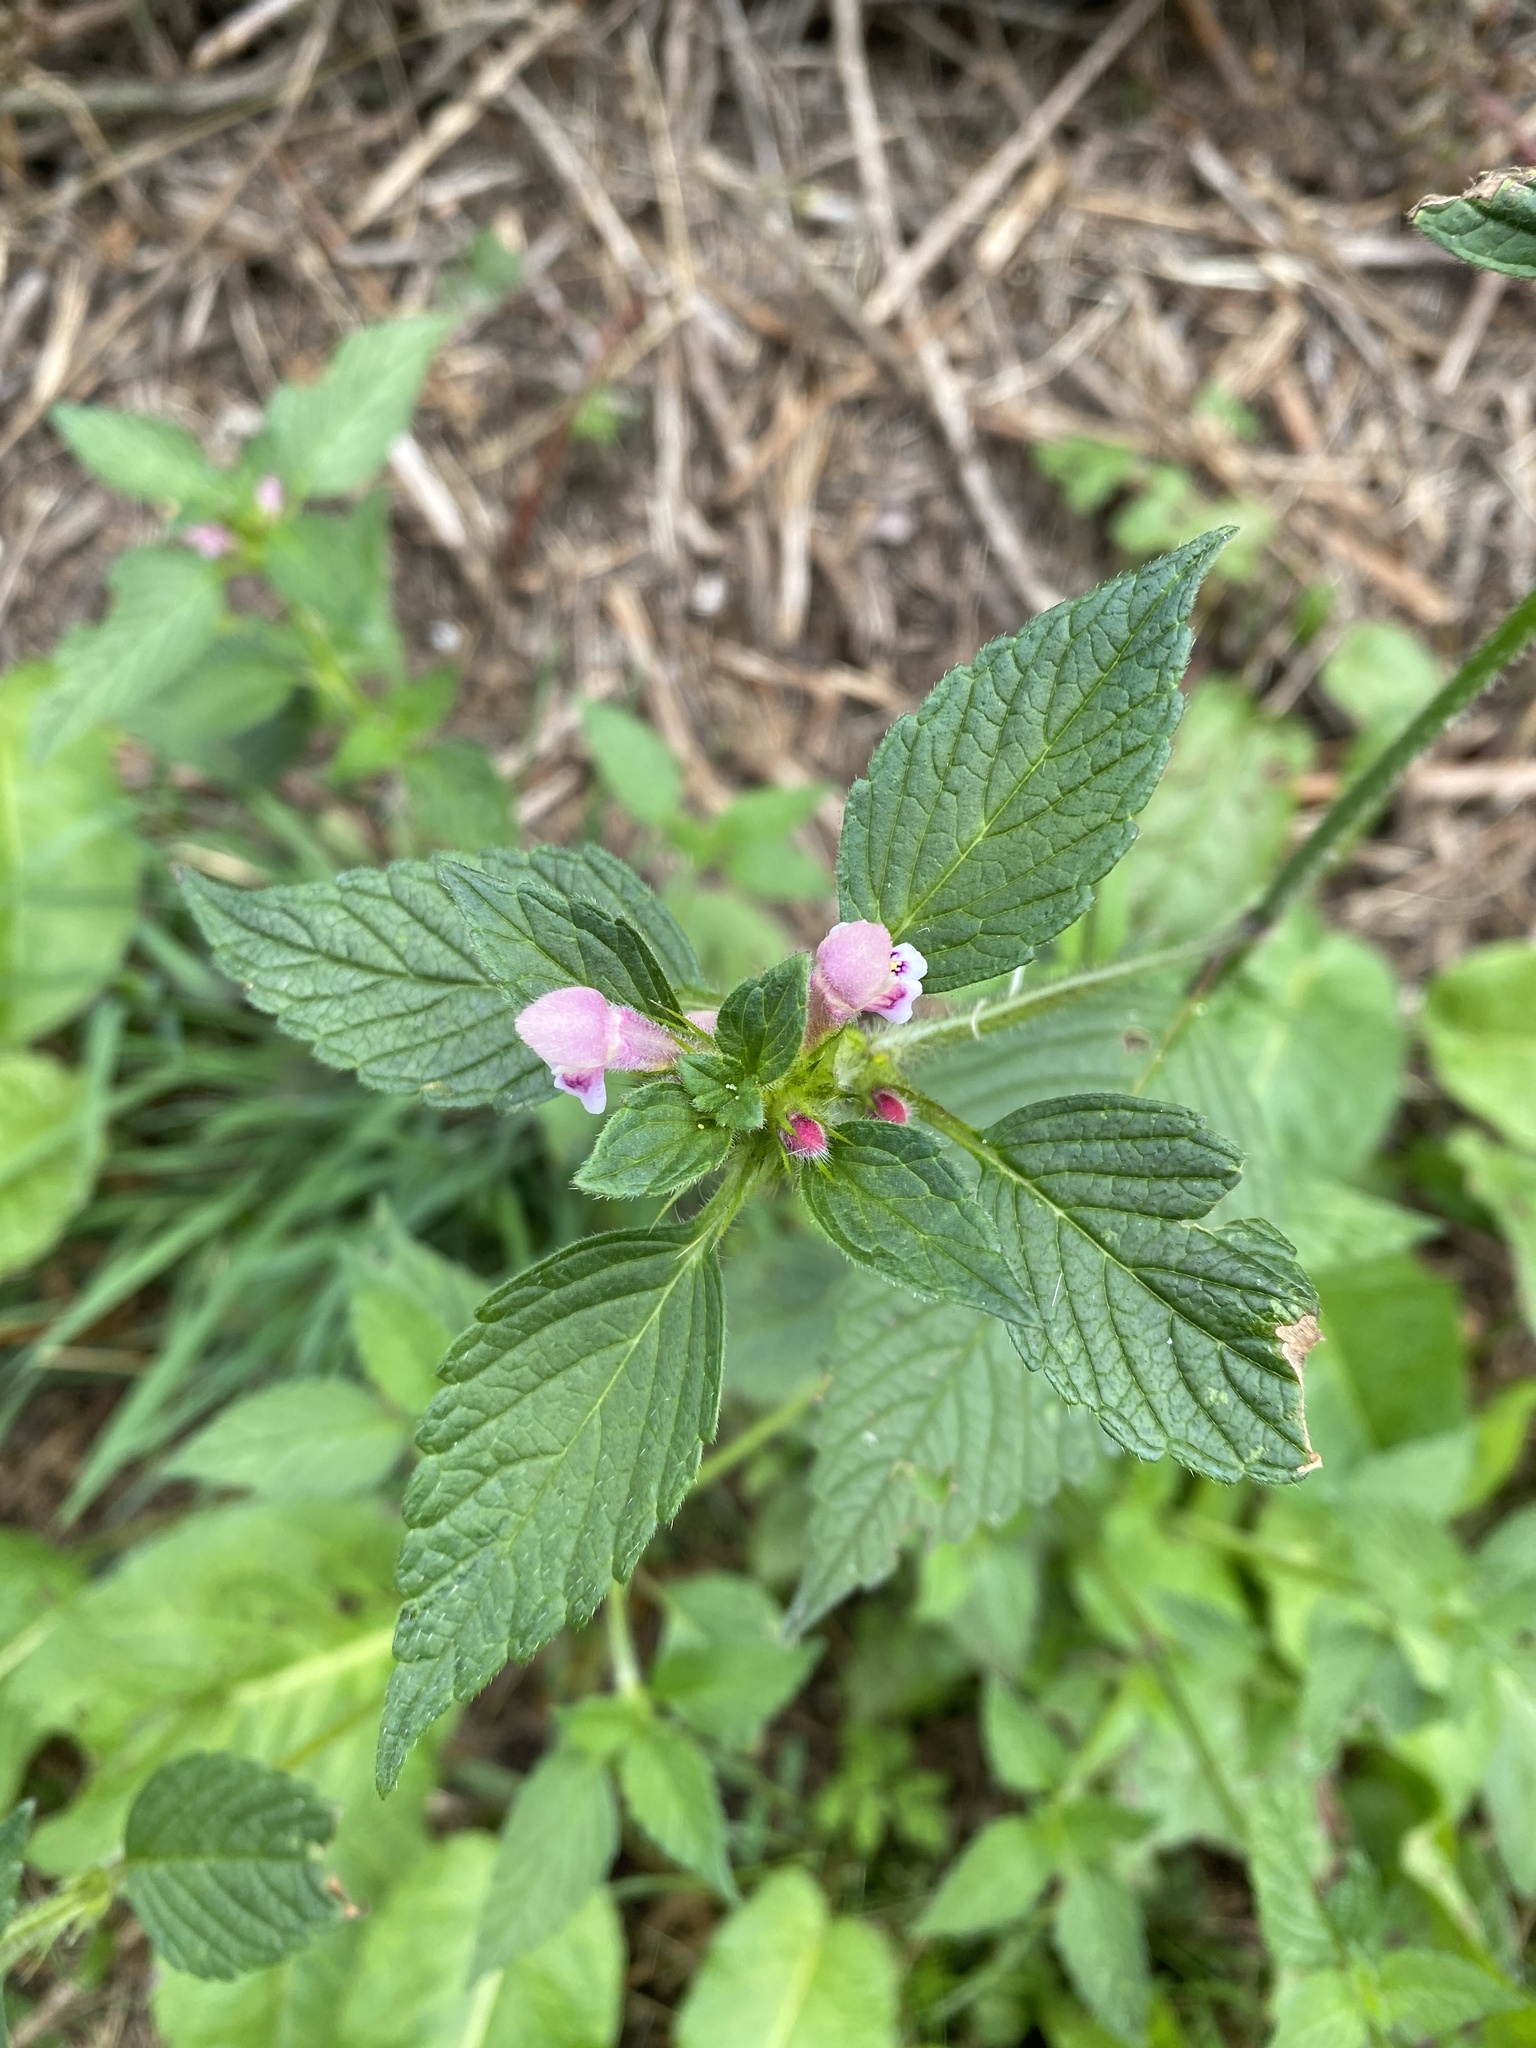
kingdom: Plantae
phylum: Tracheophyta
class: Magnoliopsida
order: Lamiales
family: Lamiaceae
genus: Galeopsis
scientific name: Galeopsis bifida
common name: Bifid hemp-nettle
